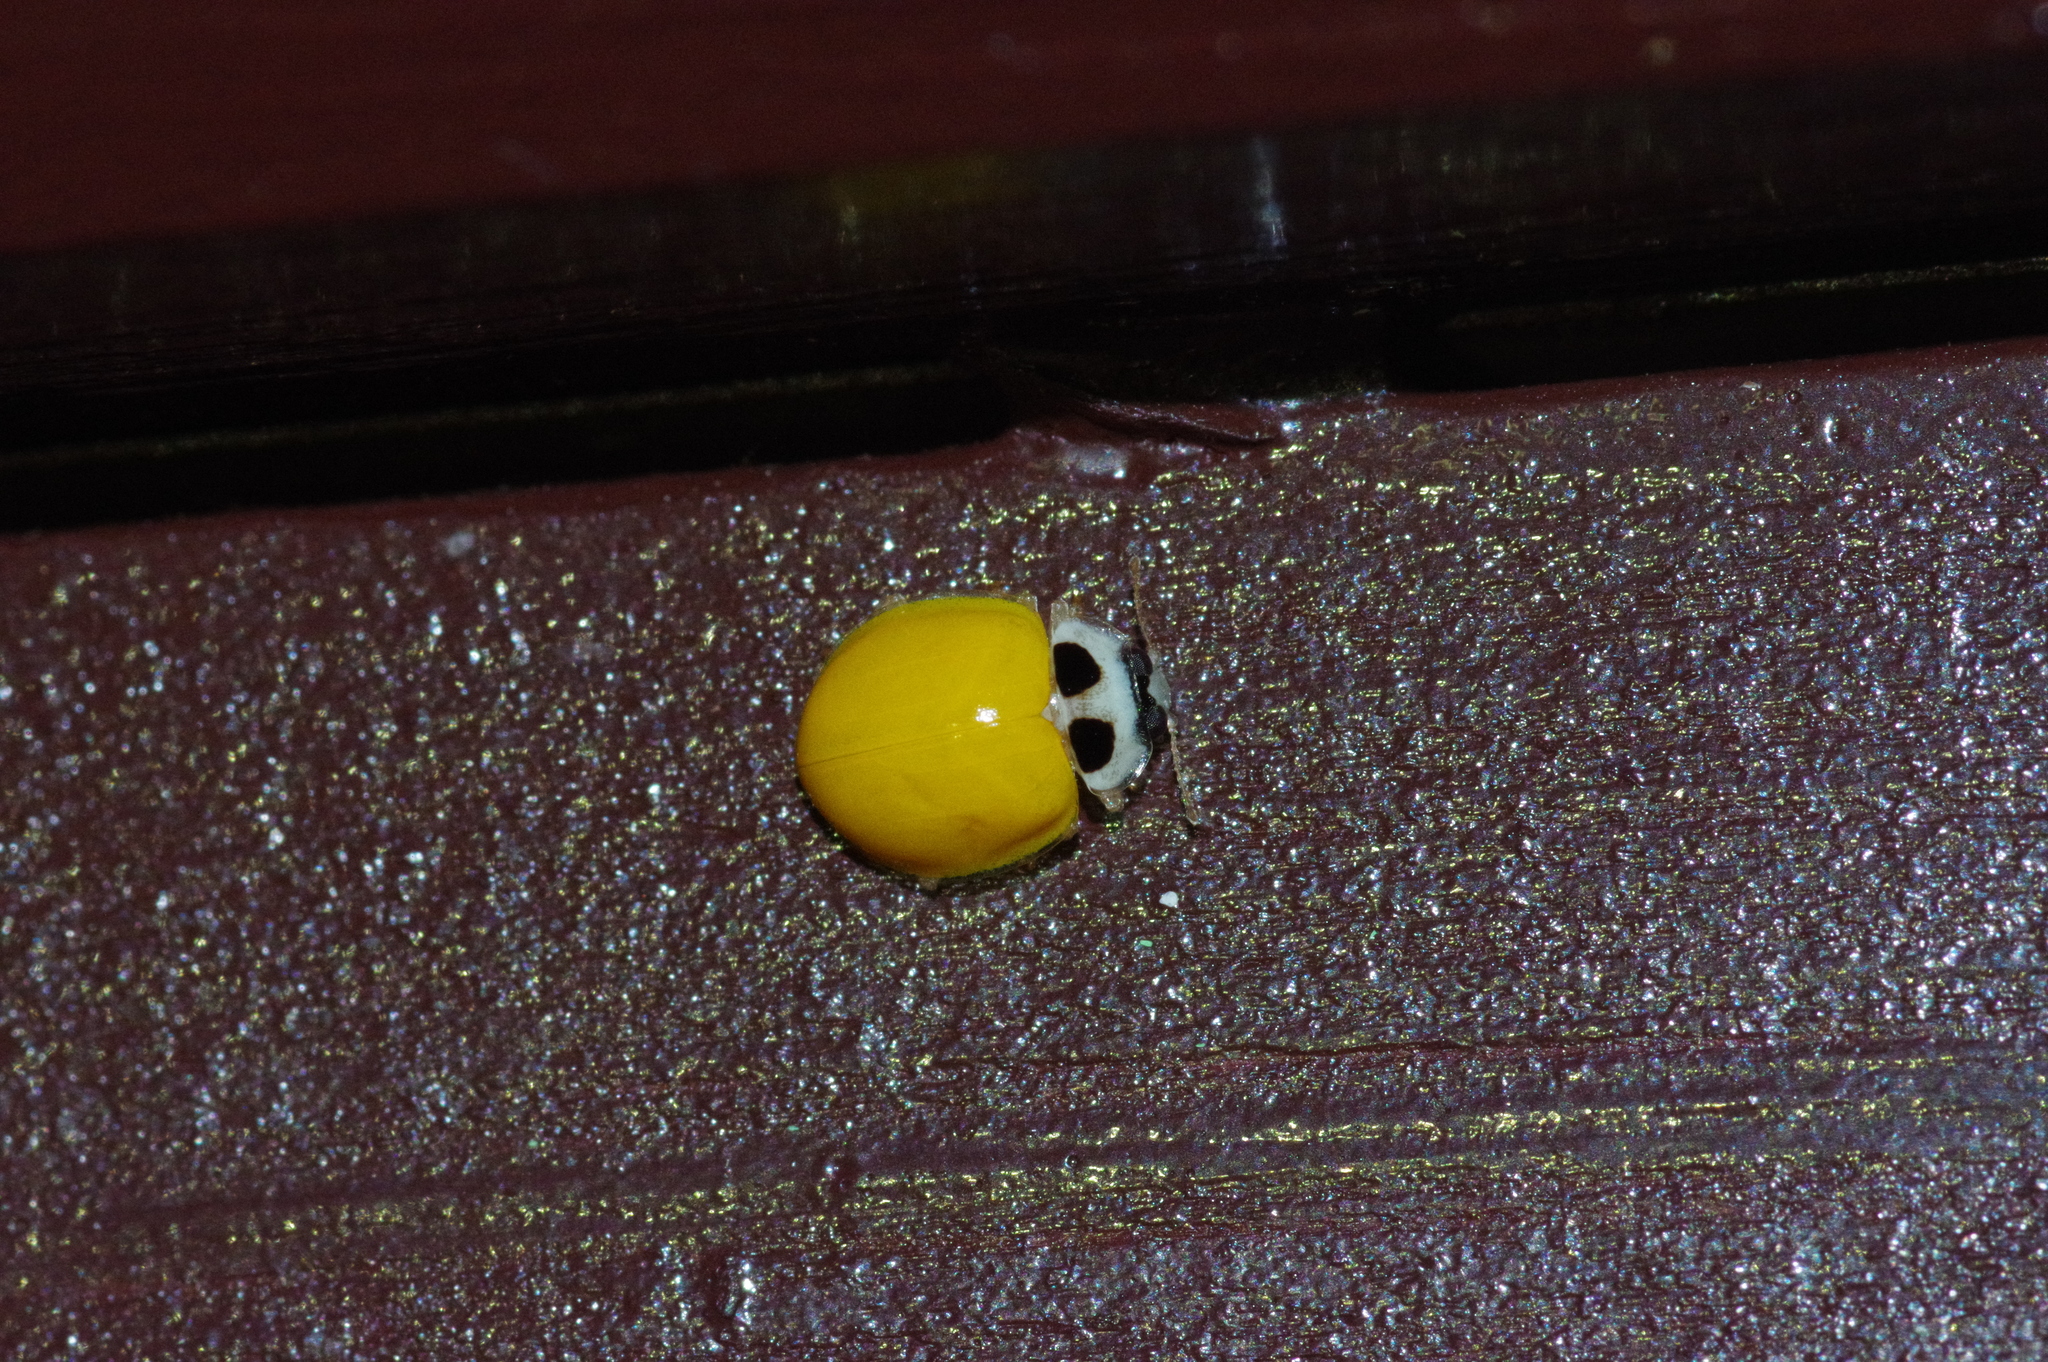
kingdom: Animalia
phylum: Arthropoda
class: Insecta
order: Coleoptera
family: Coccinellidae
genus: Illeis
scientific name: Illeis koebelei
